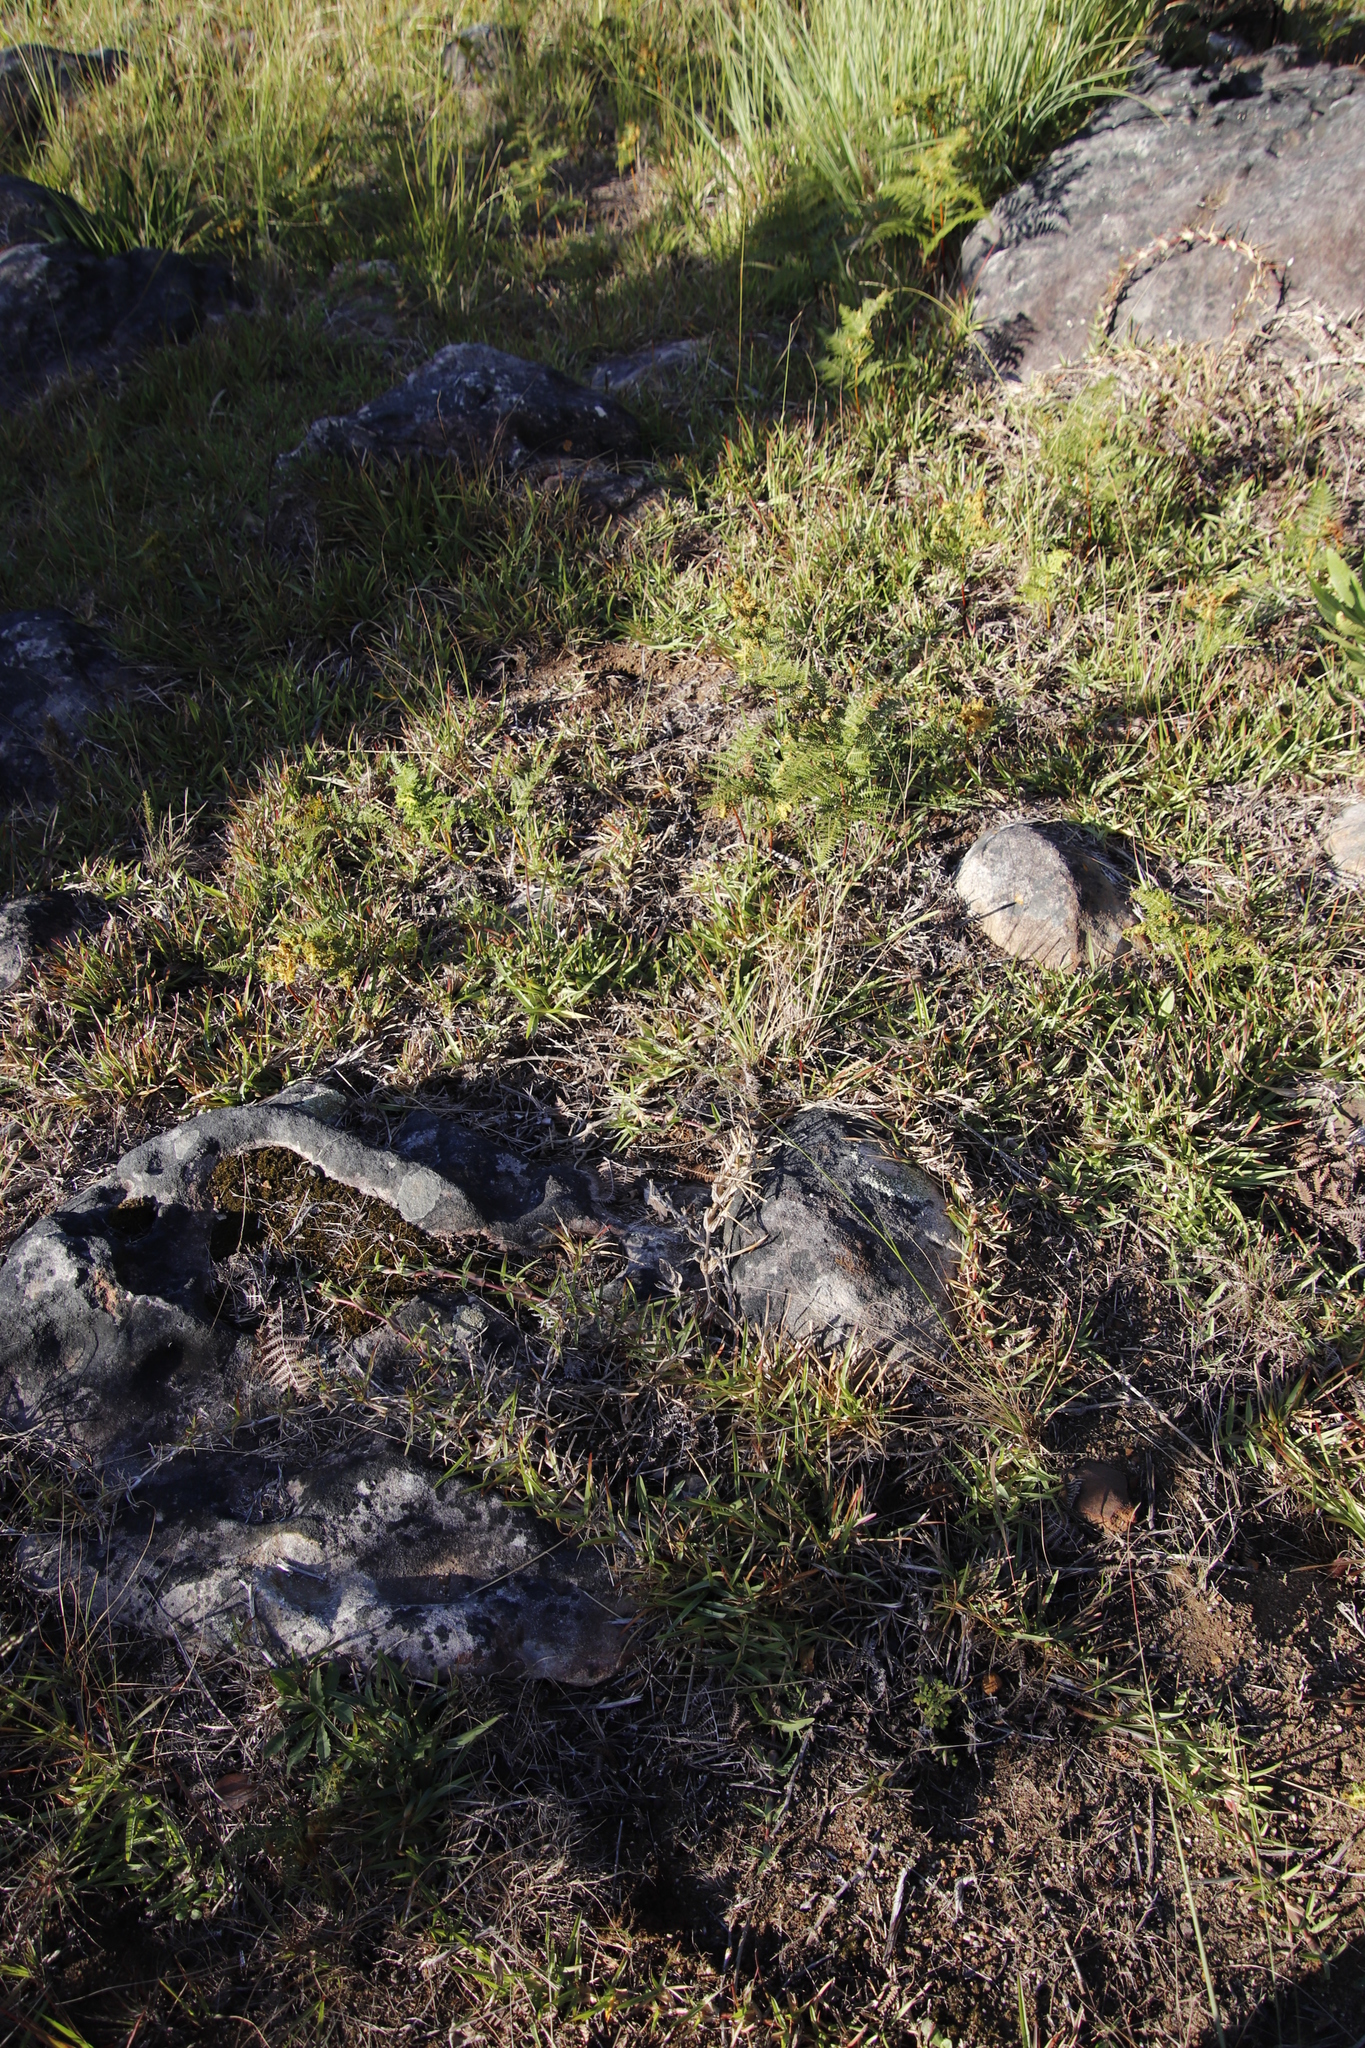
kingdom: Plantae
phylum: Tracheophyta
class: Liliopsida
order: Poales
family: Poaceae
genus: Stenotaphrum
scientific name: Stenotaphrum secundatum
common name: St. augustine grass
